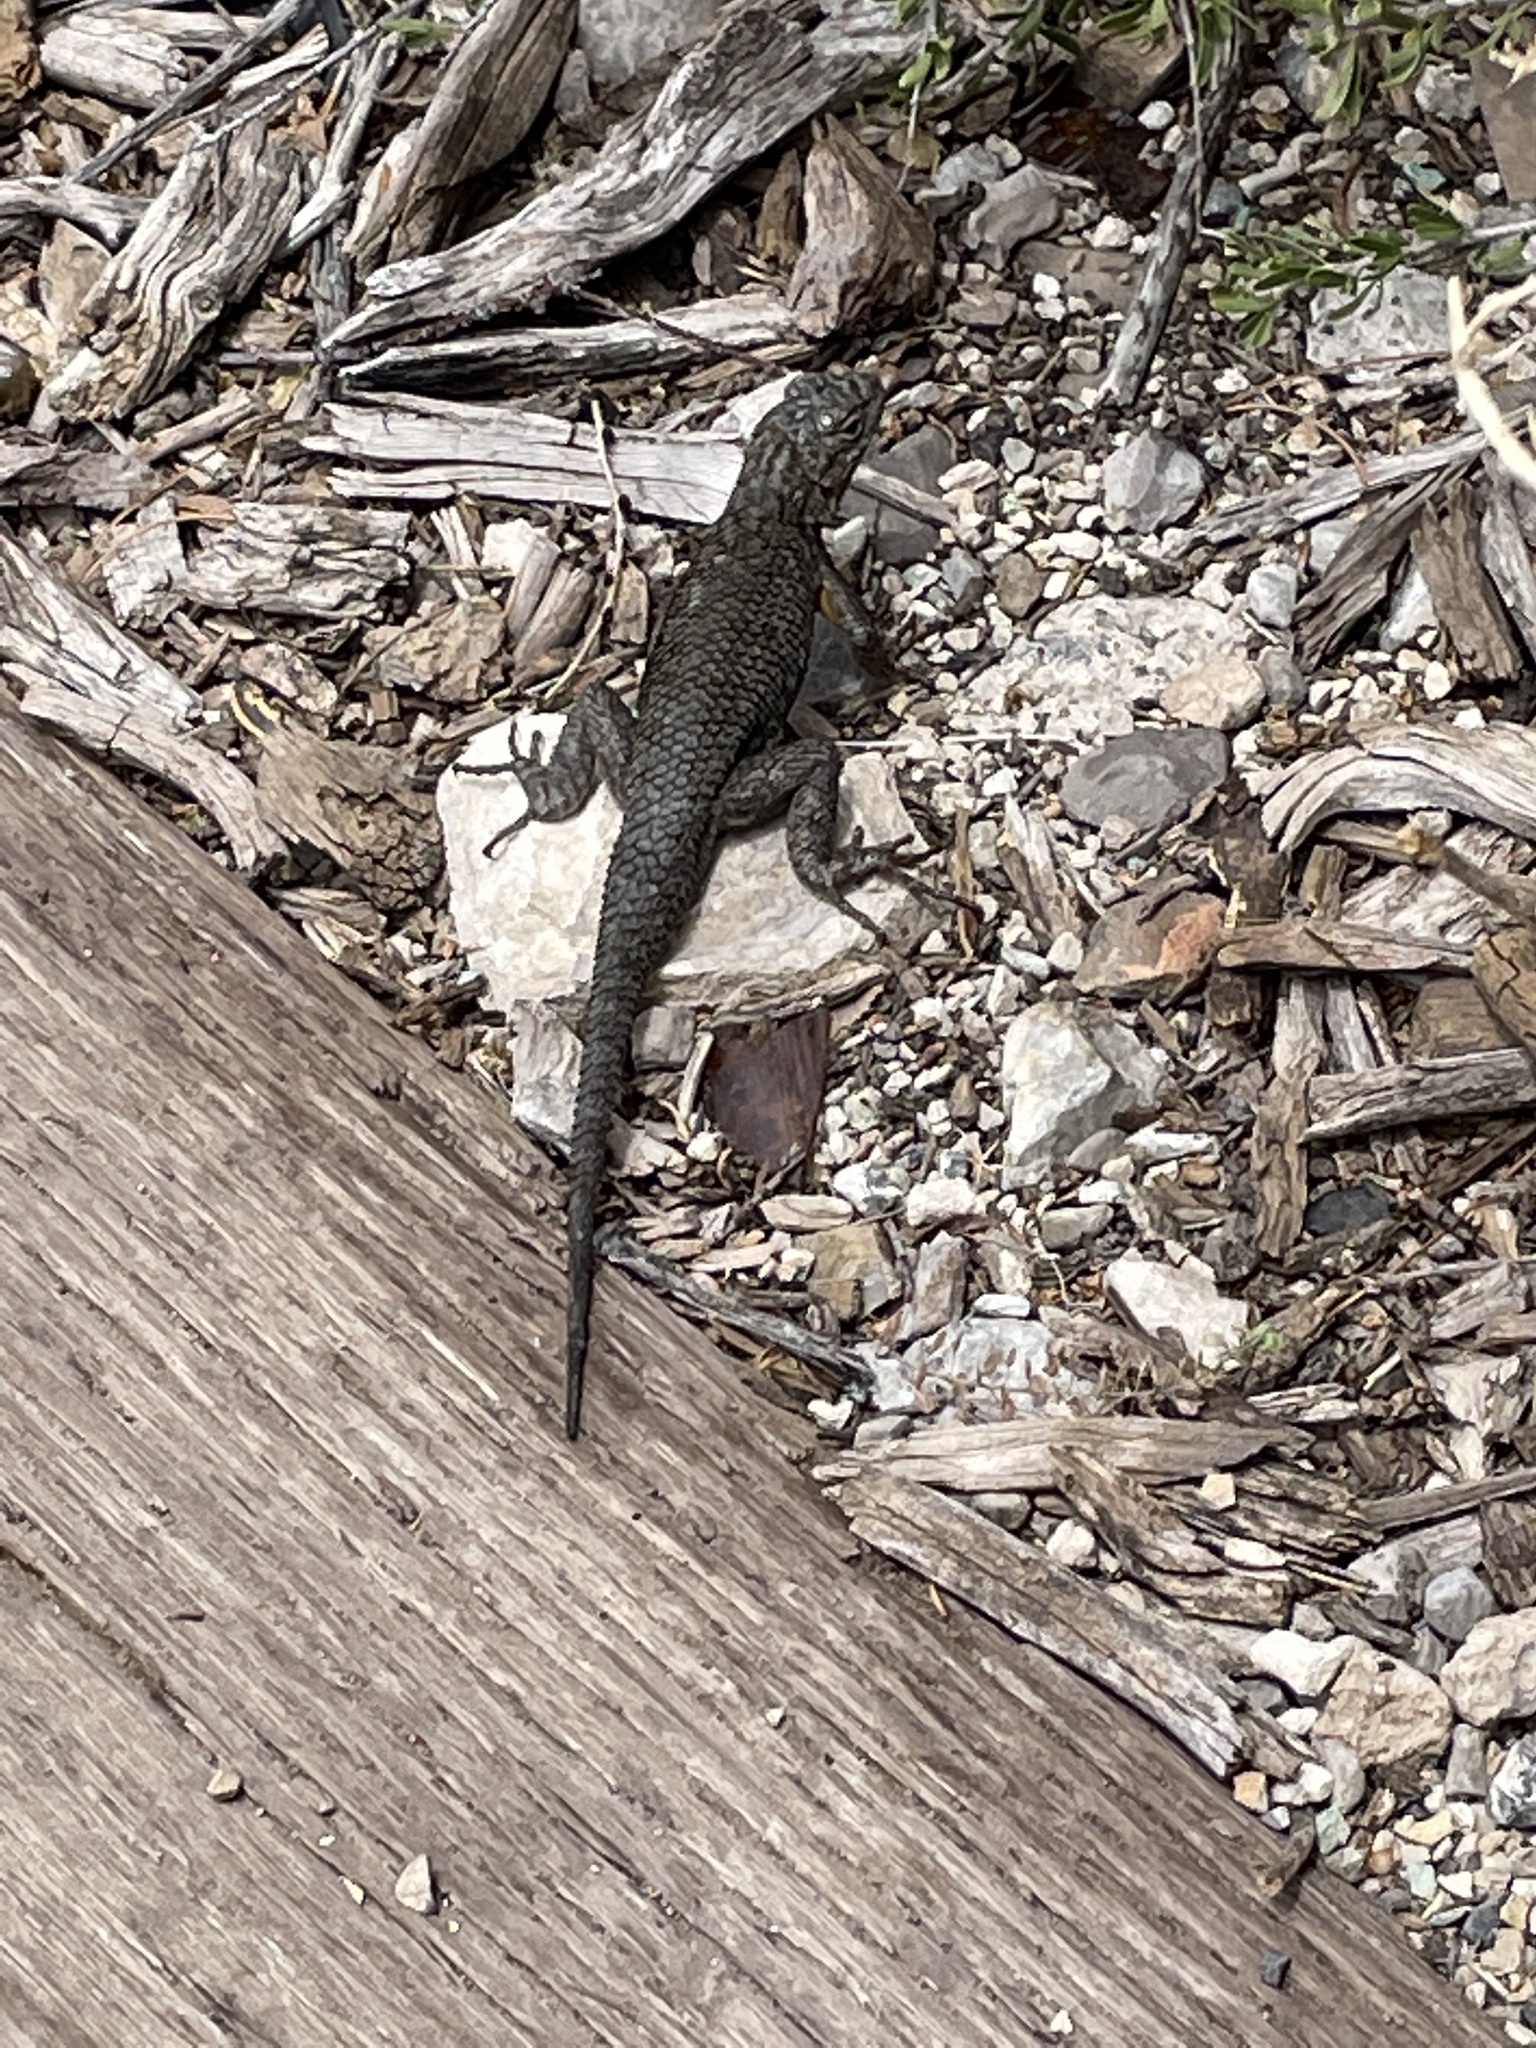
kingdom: Animalia
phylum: Chordata
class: Squamata
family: Phrynosomatidae
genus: Sceloporus
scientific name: Sceloporus occidentalis
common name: Western fence lizard
